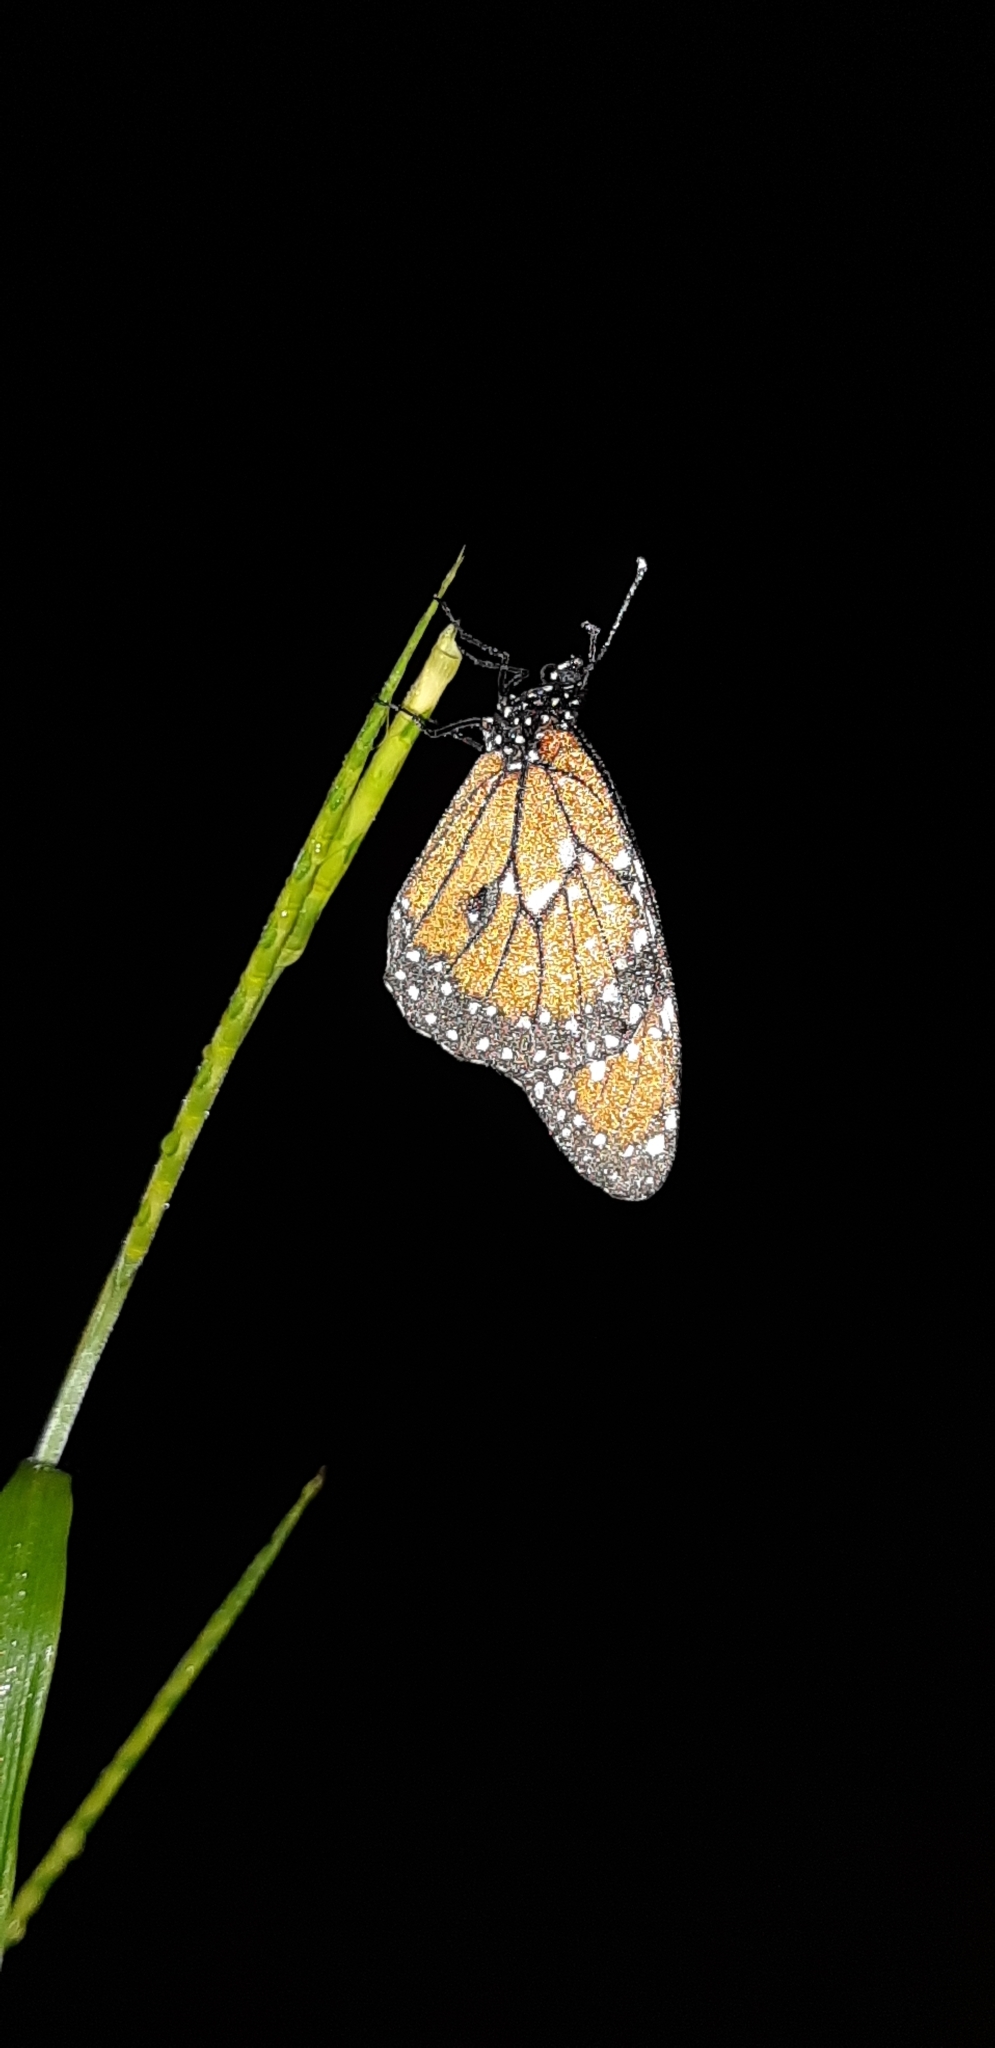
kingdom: Animalia
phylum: Arthropoda
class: Insecta
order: Lepidoptera
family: Nymphalidae
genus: Danaus
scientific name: Danaus eresimus
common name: Soldier
